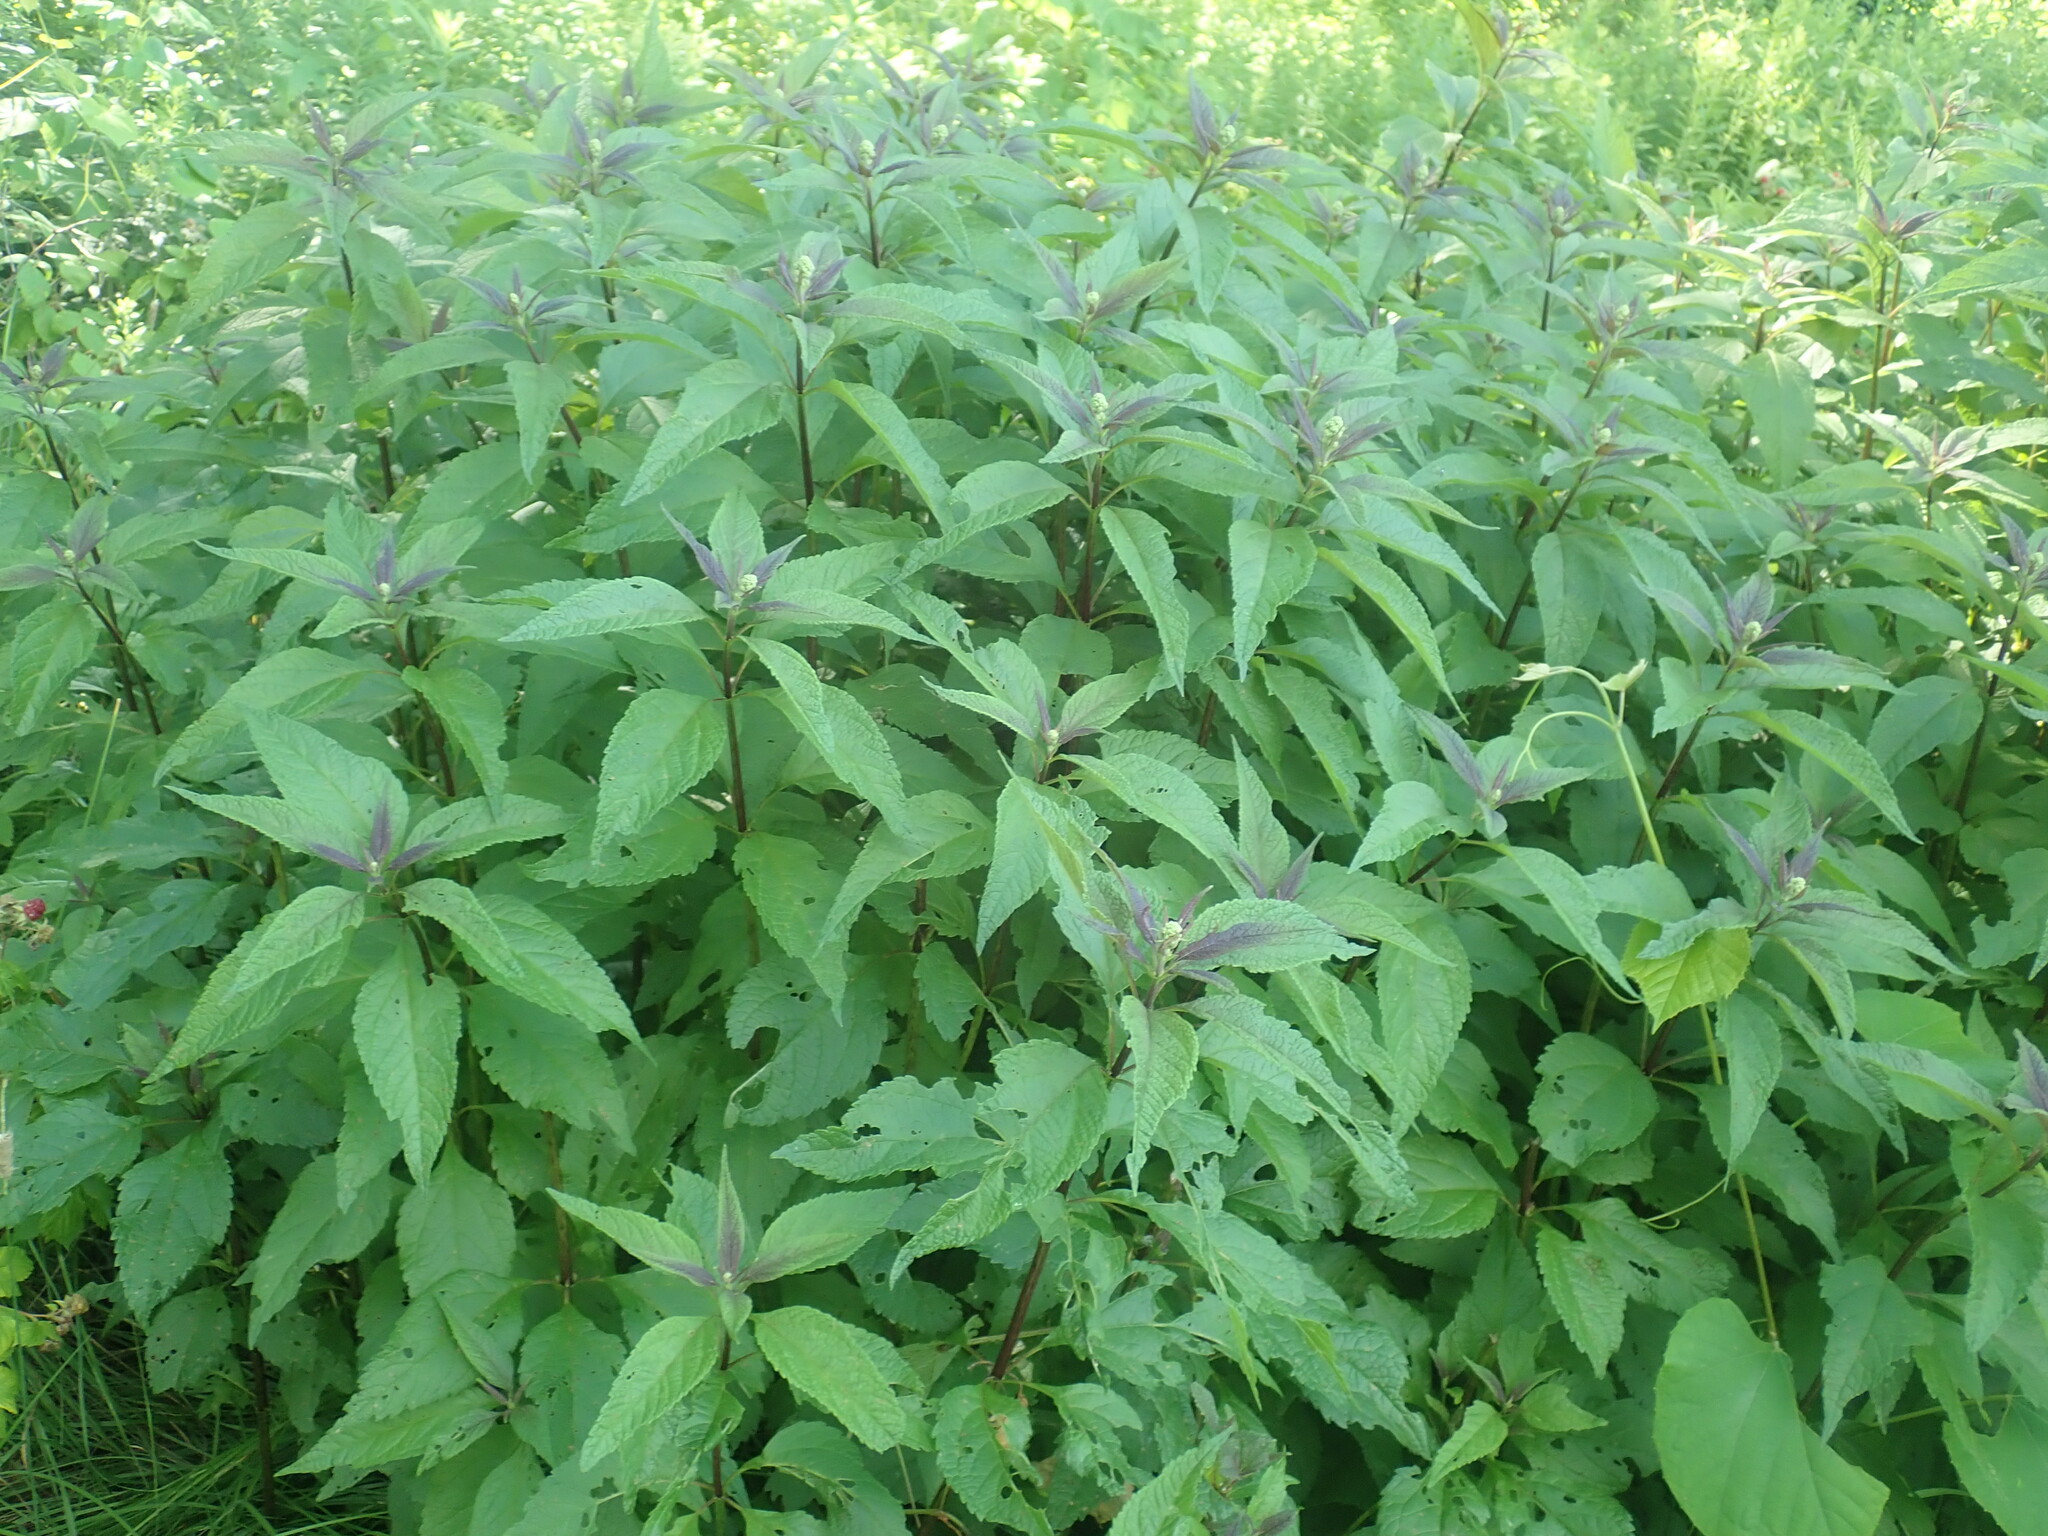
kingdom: Plantae
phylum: Tracheophyta
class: Magnoliopsida
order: Asterales
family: Asteraceae
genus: Eutrochium
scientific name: Eutrochium
